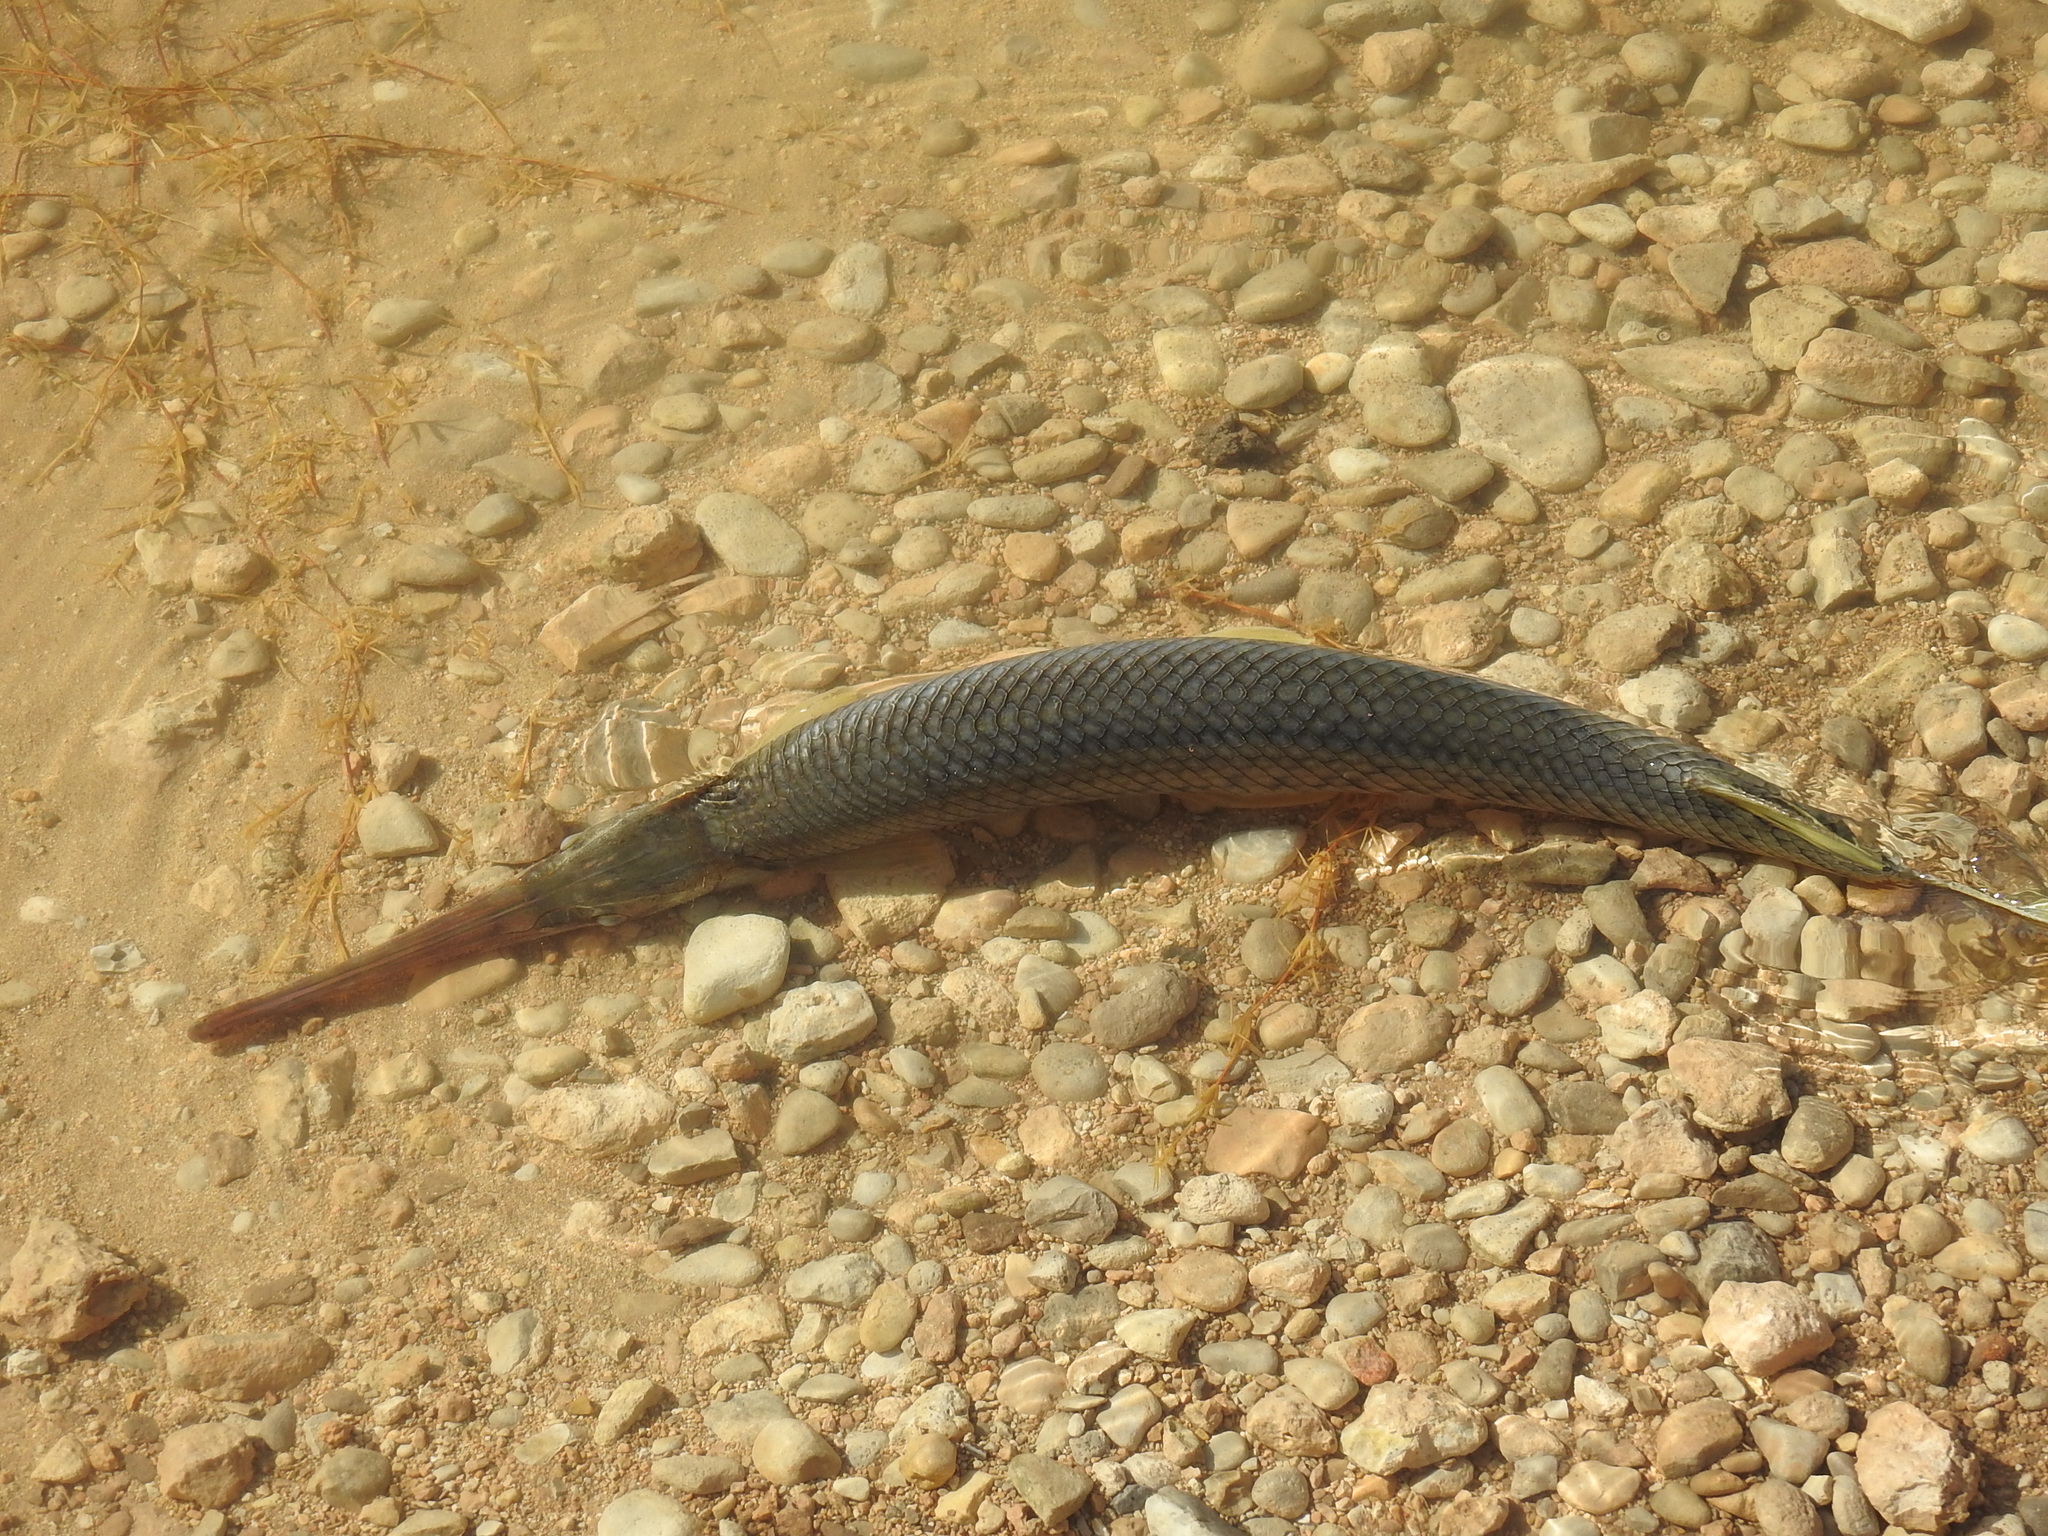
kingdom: Animalia
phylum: Chordata
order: Lepisosteiformes
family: Lepisosteidae
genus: Lepisosteus
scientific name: Lepisosteus osseus
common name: Longnose gar
